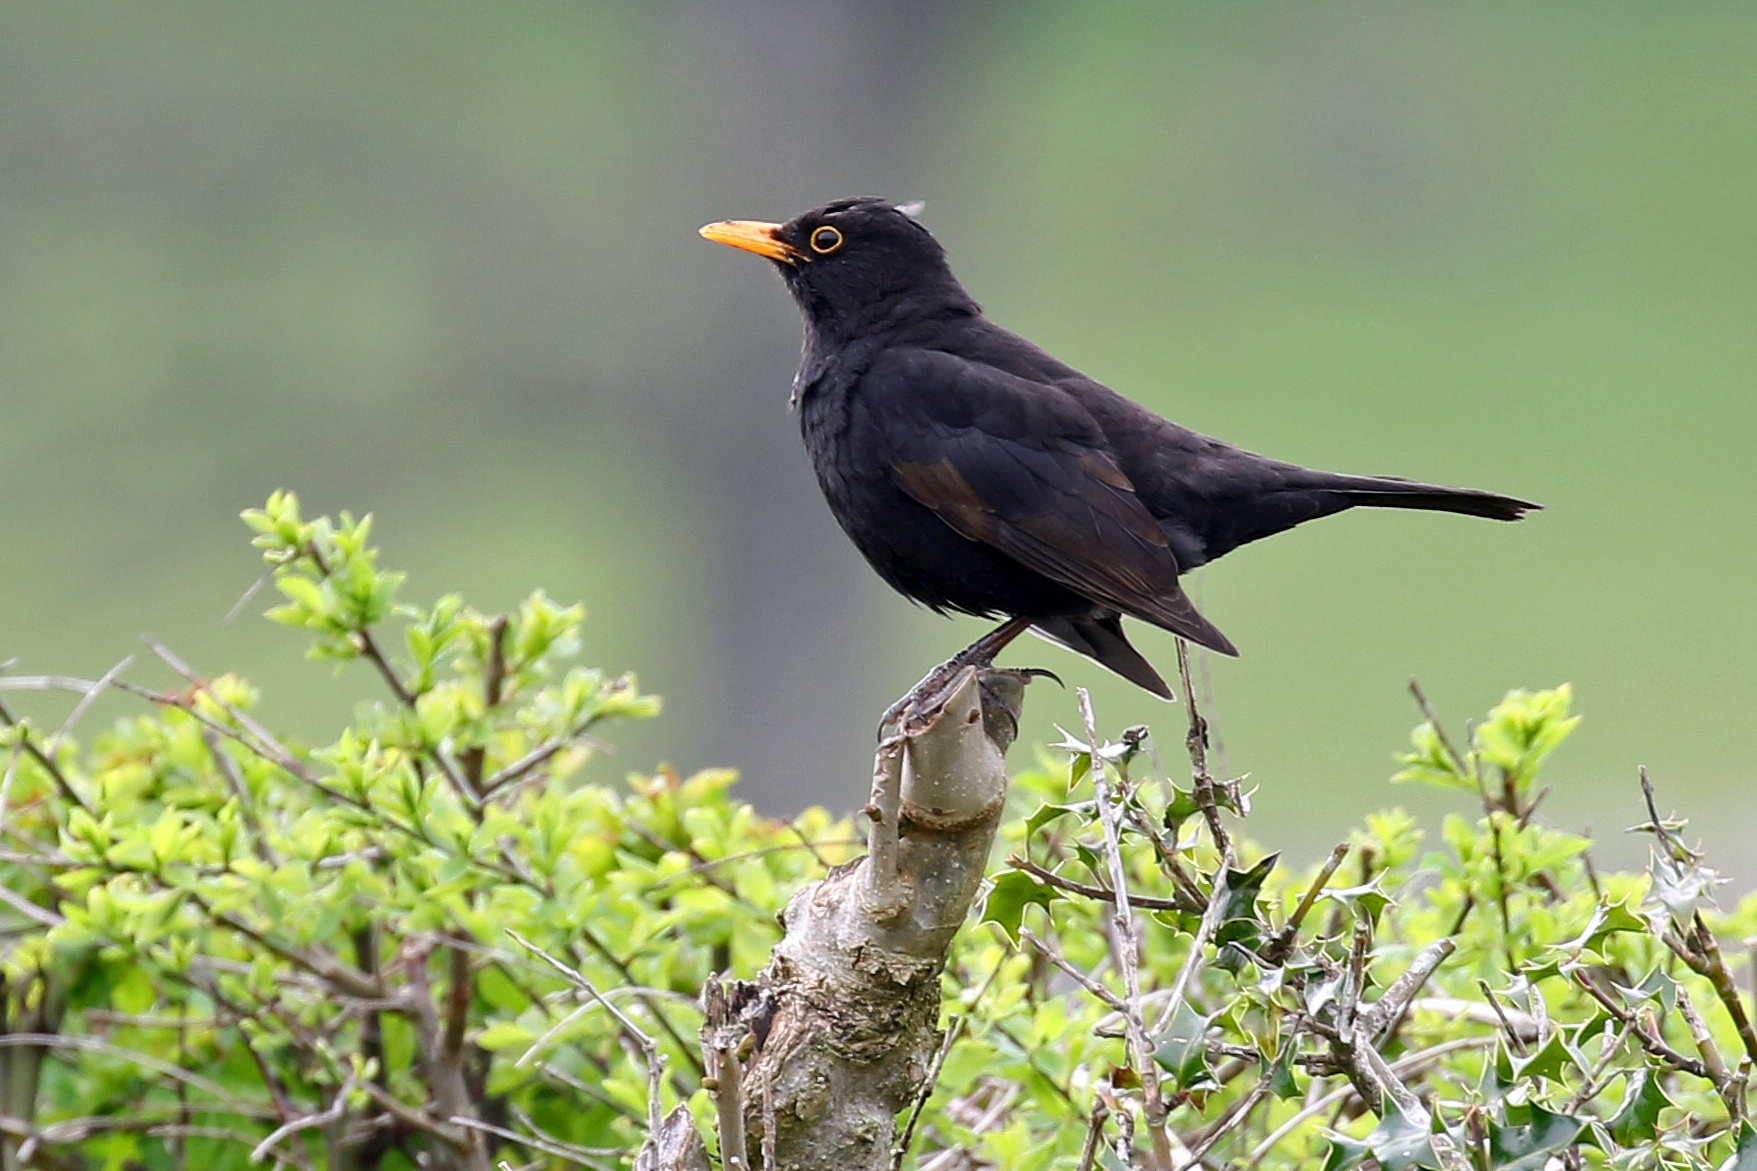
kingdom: Animalia
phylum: Chordata
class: Aves
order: Passeriformes
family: Turdidae
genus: Turdus
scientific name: Turdus merula
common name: Common blackbird
